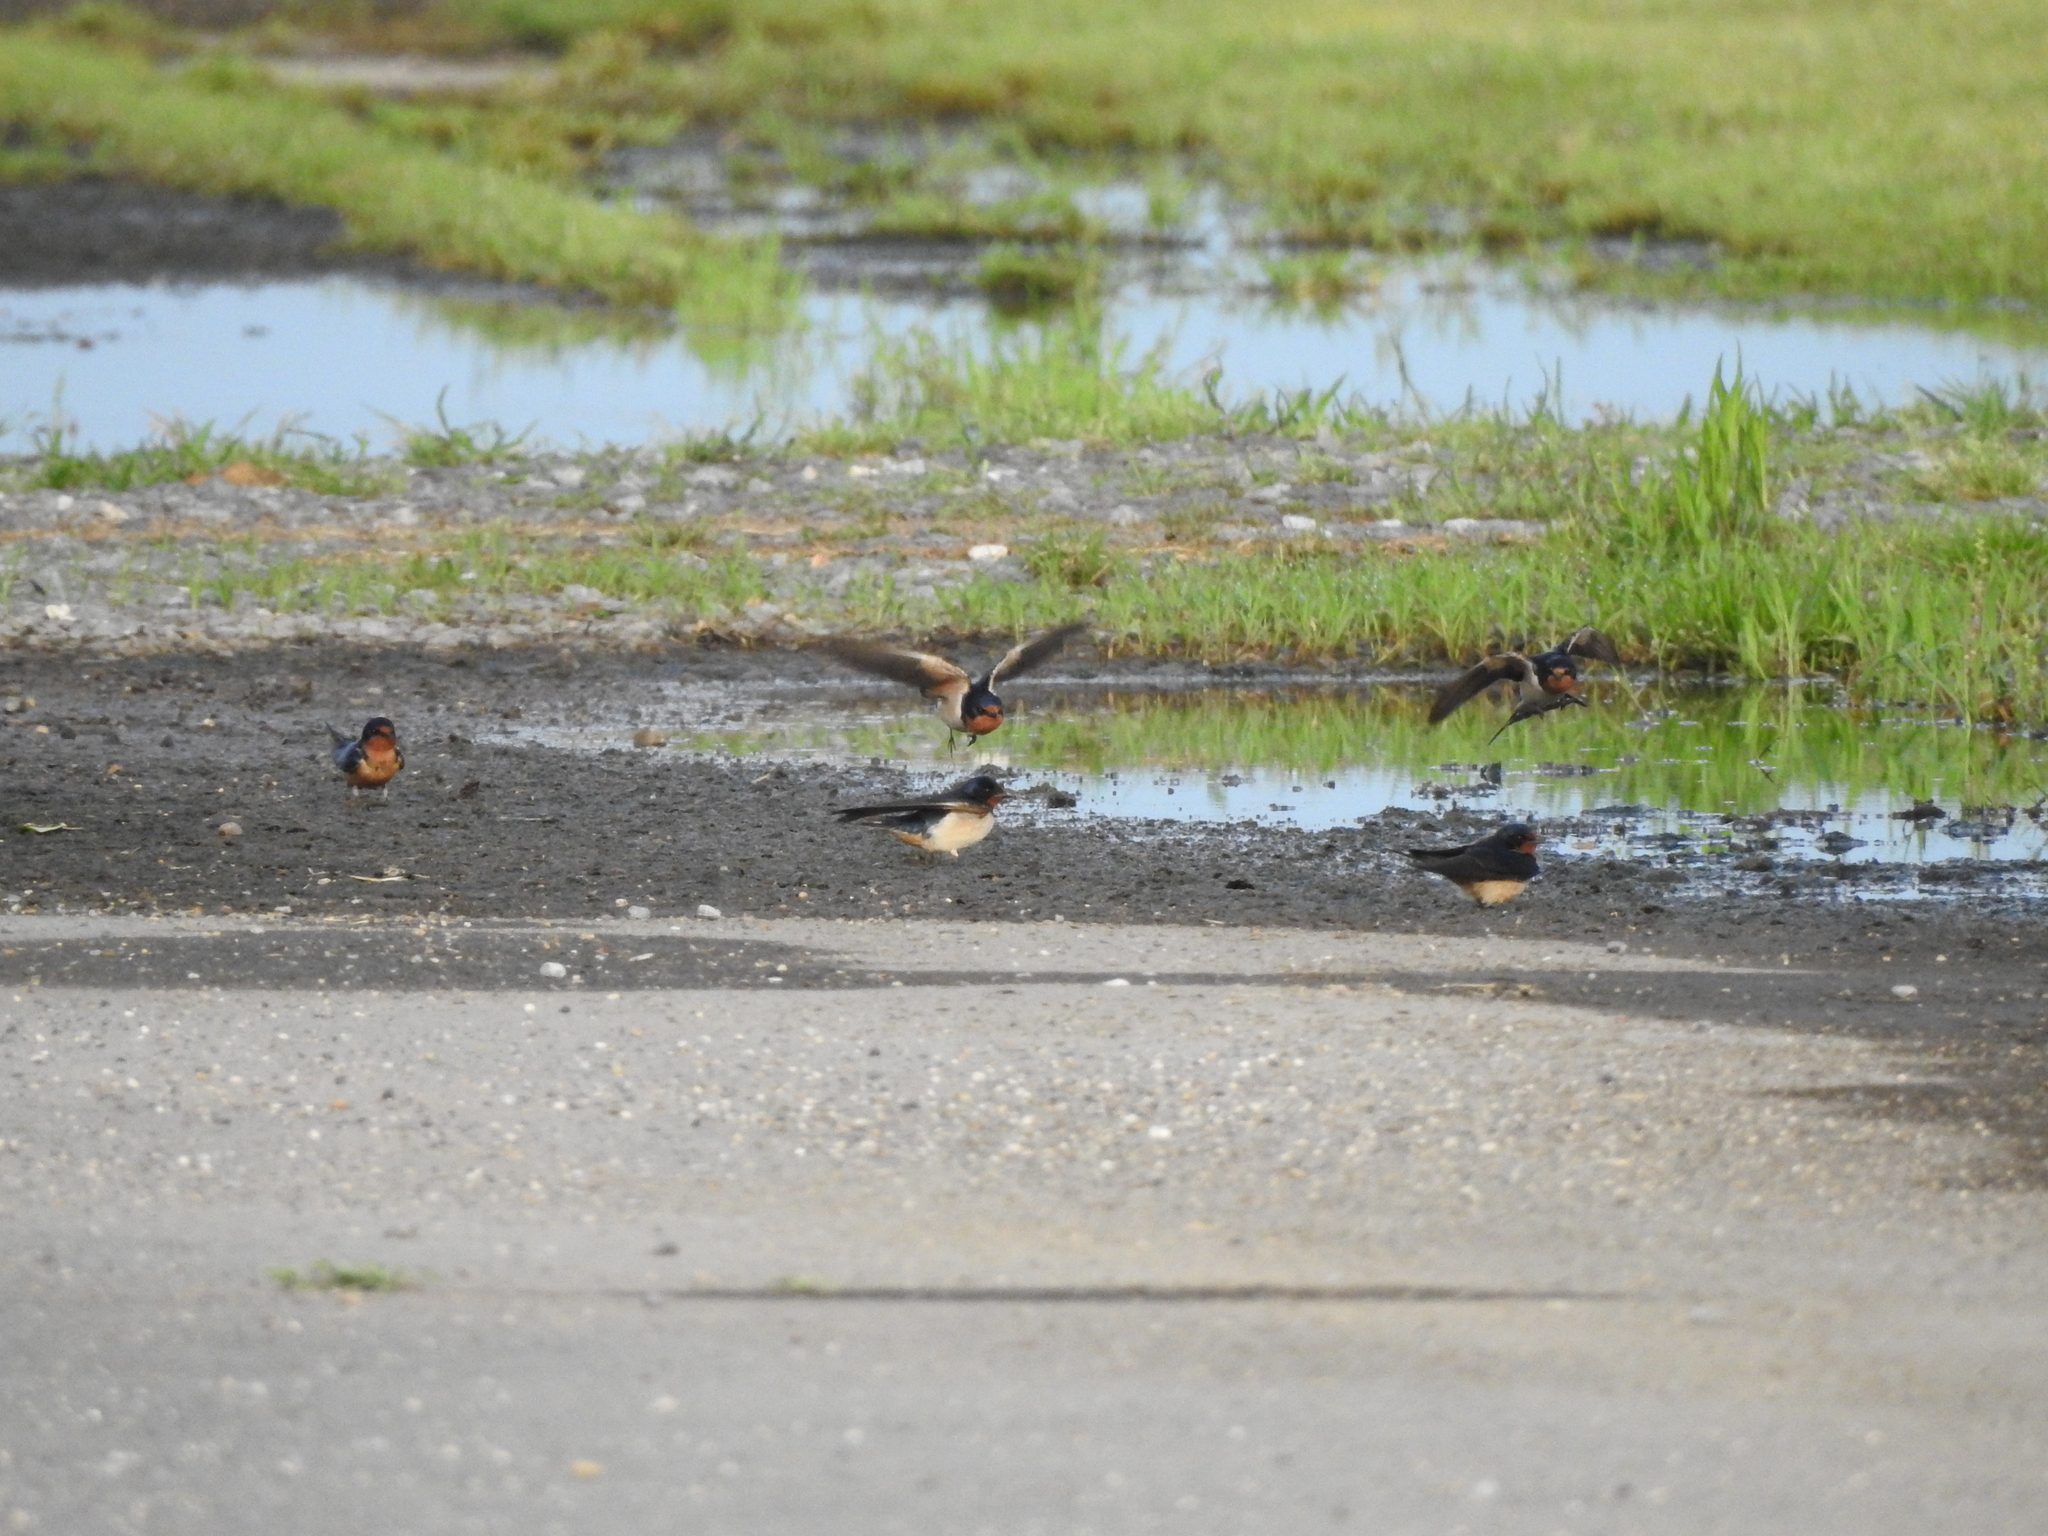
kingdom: Animalia
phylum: Chordata
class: Aves
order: Passeriformes
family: Hirundinidae
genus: Hirundo
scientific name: Hirundo rustica
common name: Barn swallow
